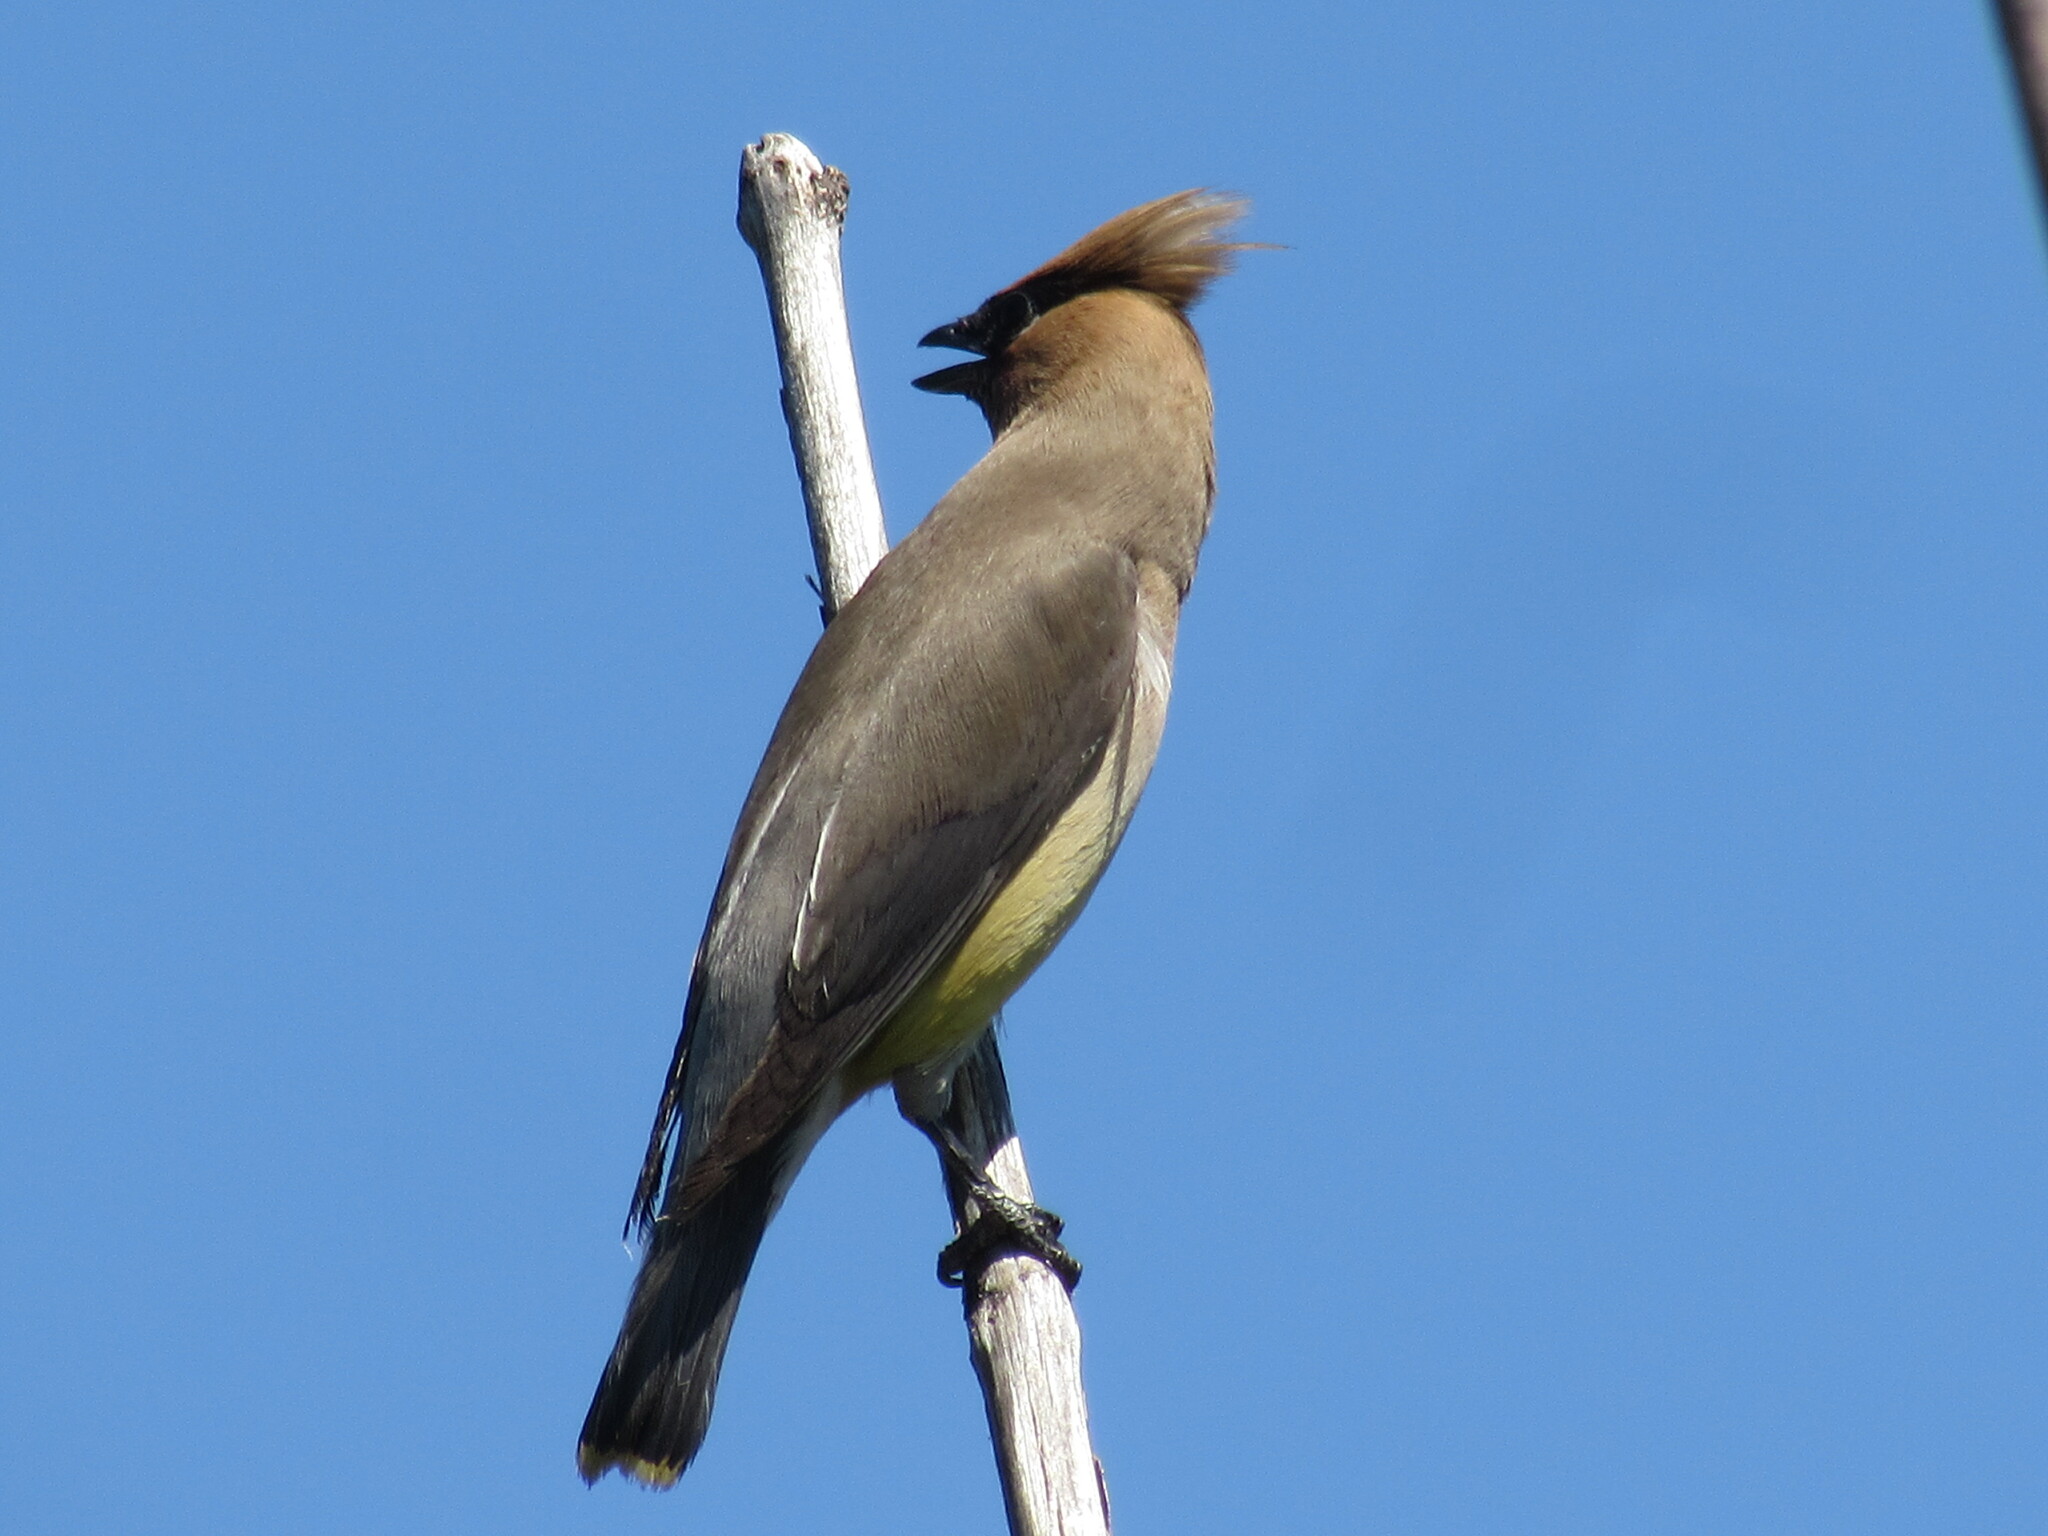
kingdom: Animalia
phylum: Chordata
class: Aves
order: Passeriformes
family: Bombycillidae
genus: Bombycilla
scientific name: Bombycilla cedrorum
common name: Cedar waxwing
